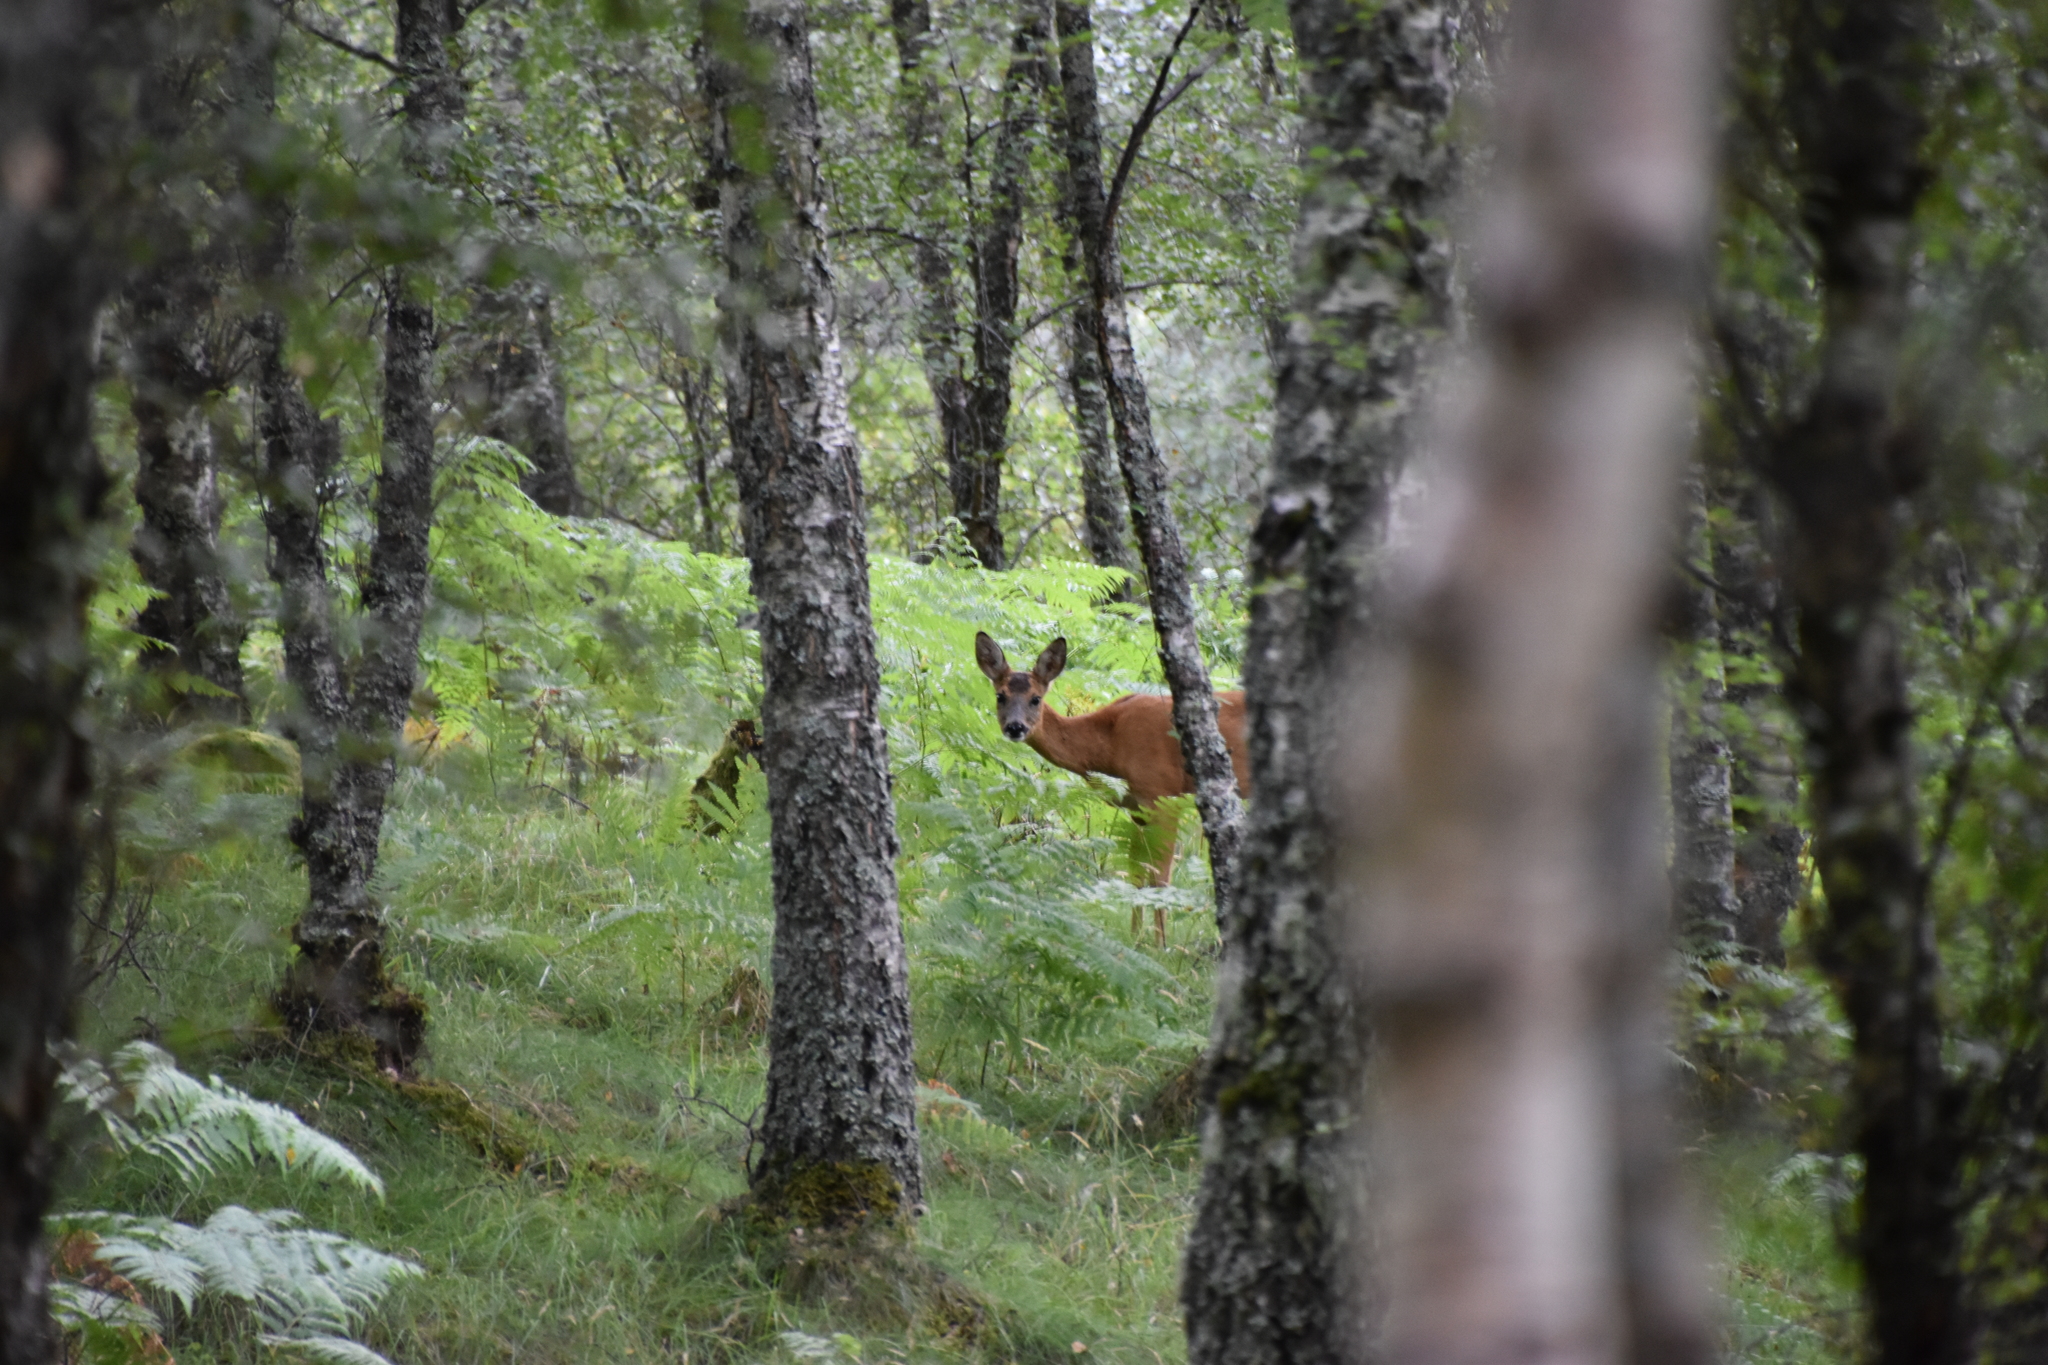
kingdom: Animalia
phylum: Chordata
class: Mammalia
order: Artiodactyla
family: Cervidae
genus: Capreolus
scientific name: Capreolus capreolus
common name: Western roe deer
